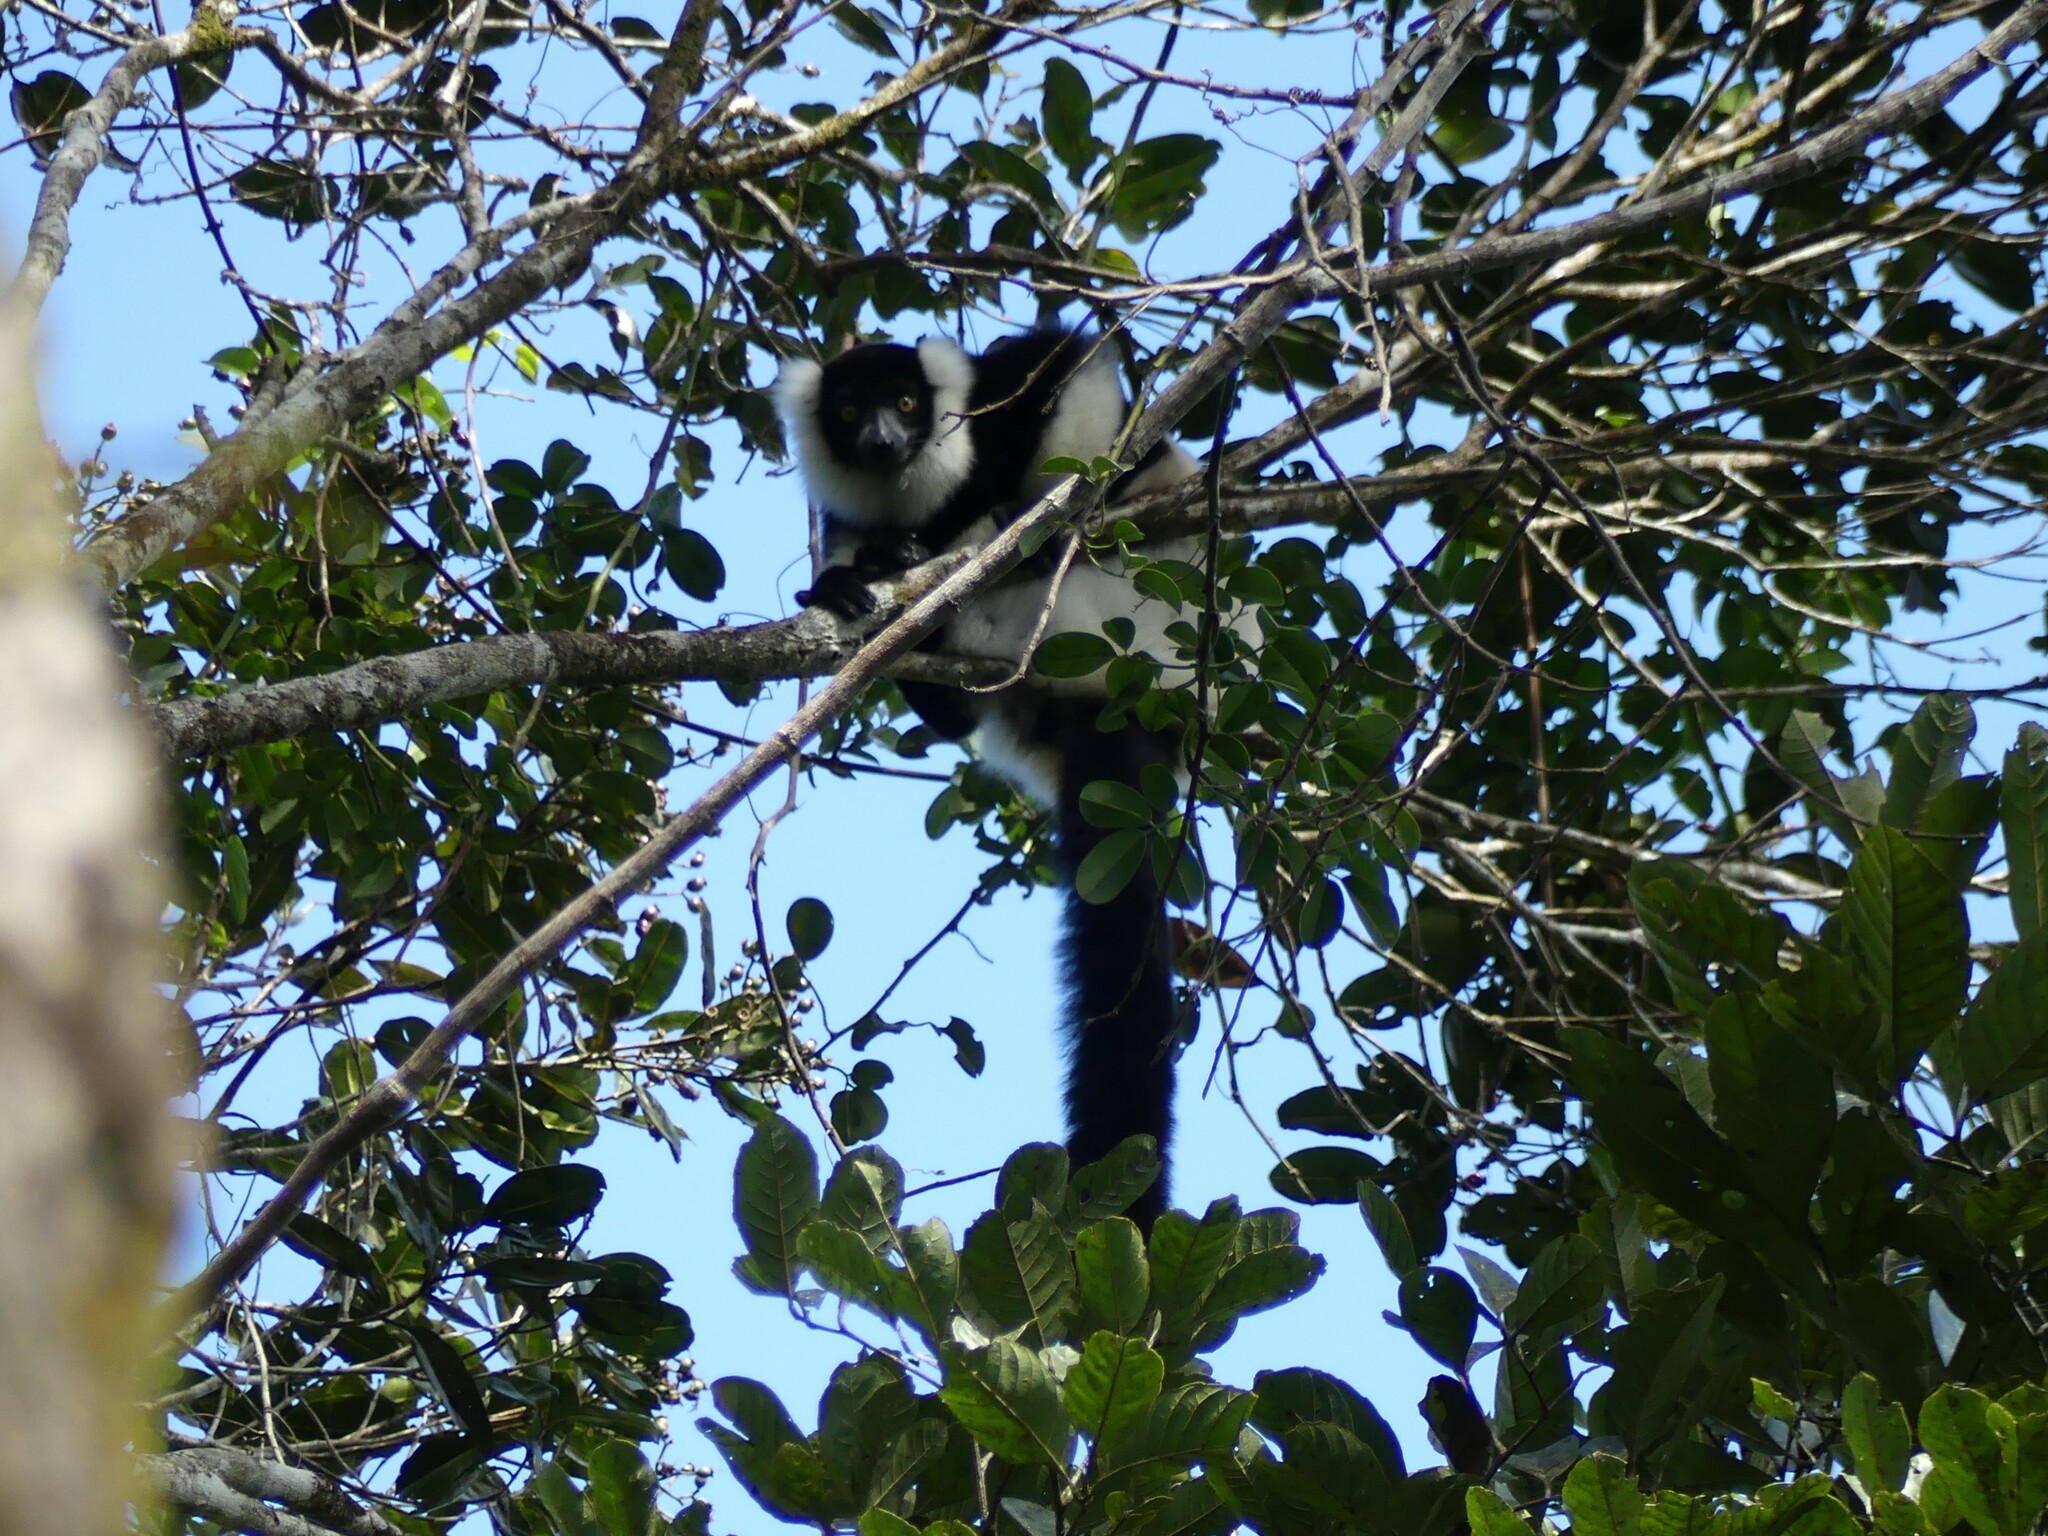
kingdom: Animalia
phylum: Chordata
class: Mammalia
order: Primates
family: Lemuridae
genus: Varecia
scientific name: Varecia variegata
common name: Black-and-white ruffed lemur
